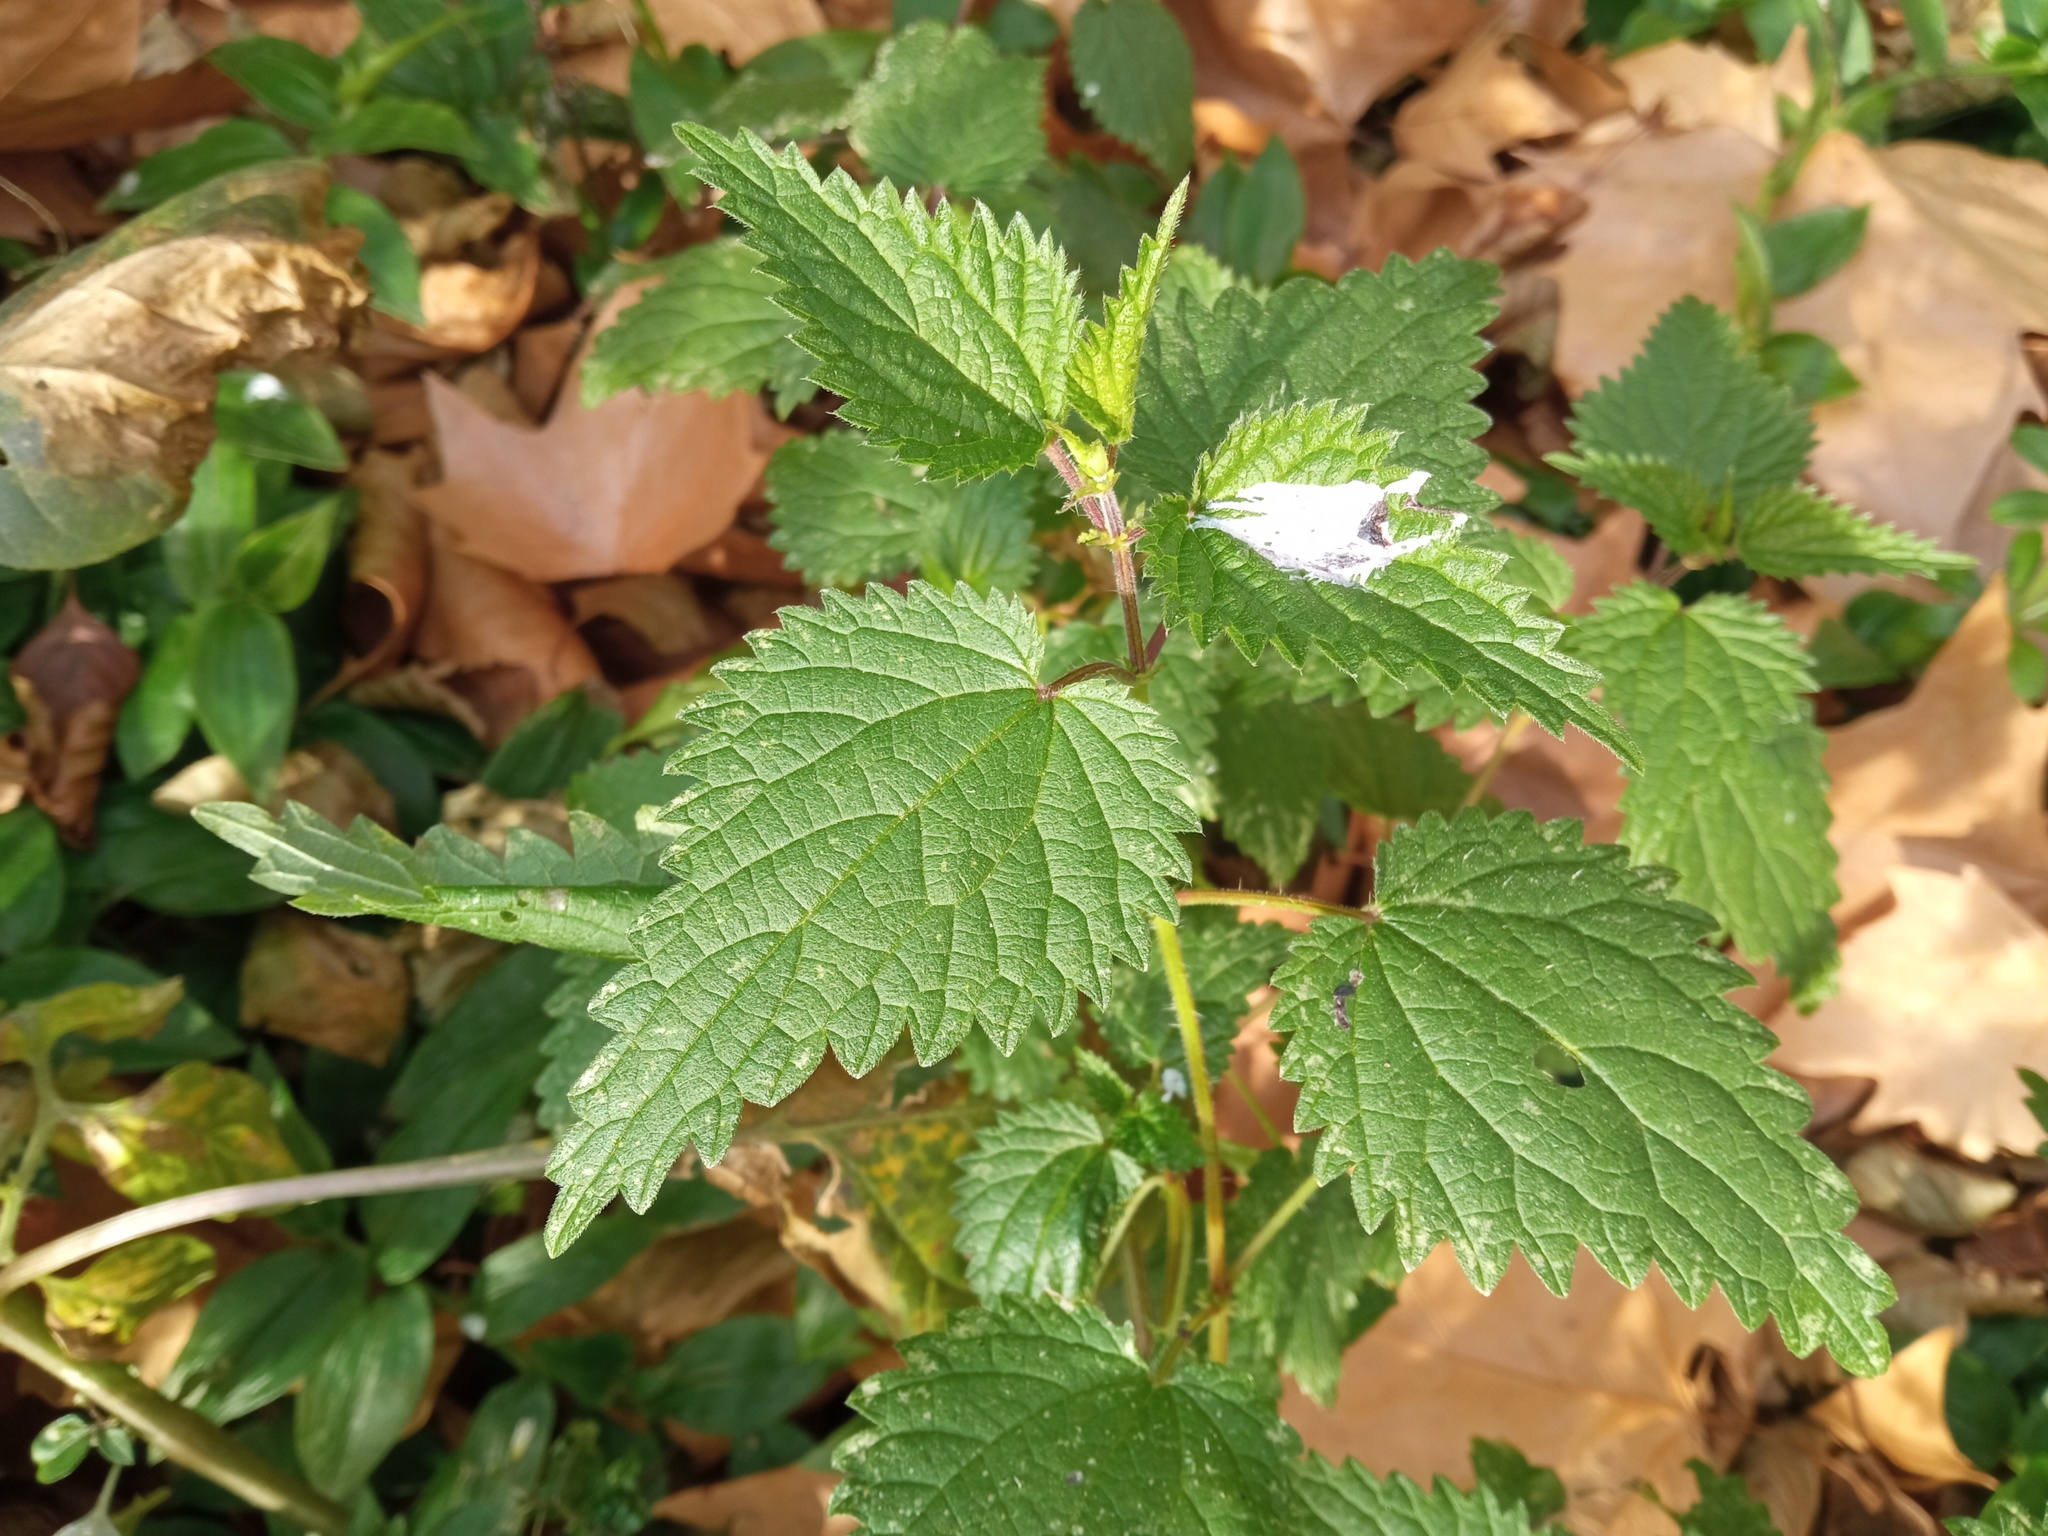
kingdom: Plantae
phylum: Tracheophyta
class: Magnoliopsida
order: Rosales
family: Urticaceae
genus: Urtica
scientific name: Urtica dioica
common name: Common nettle
